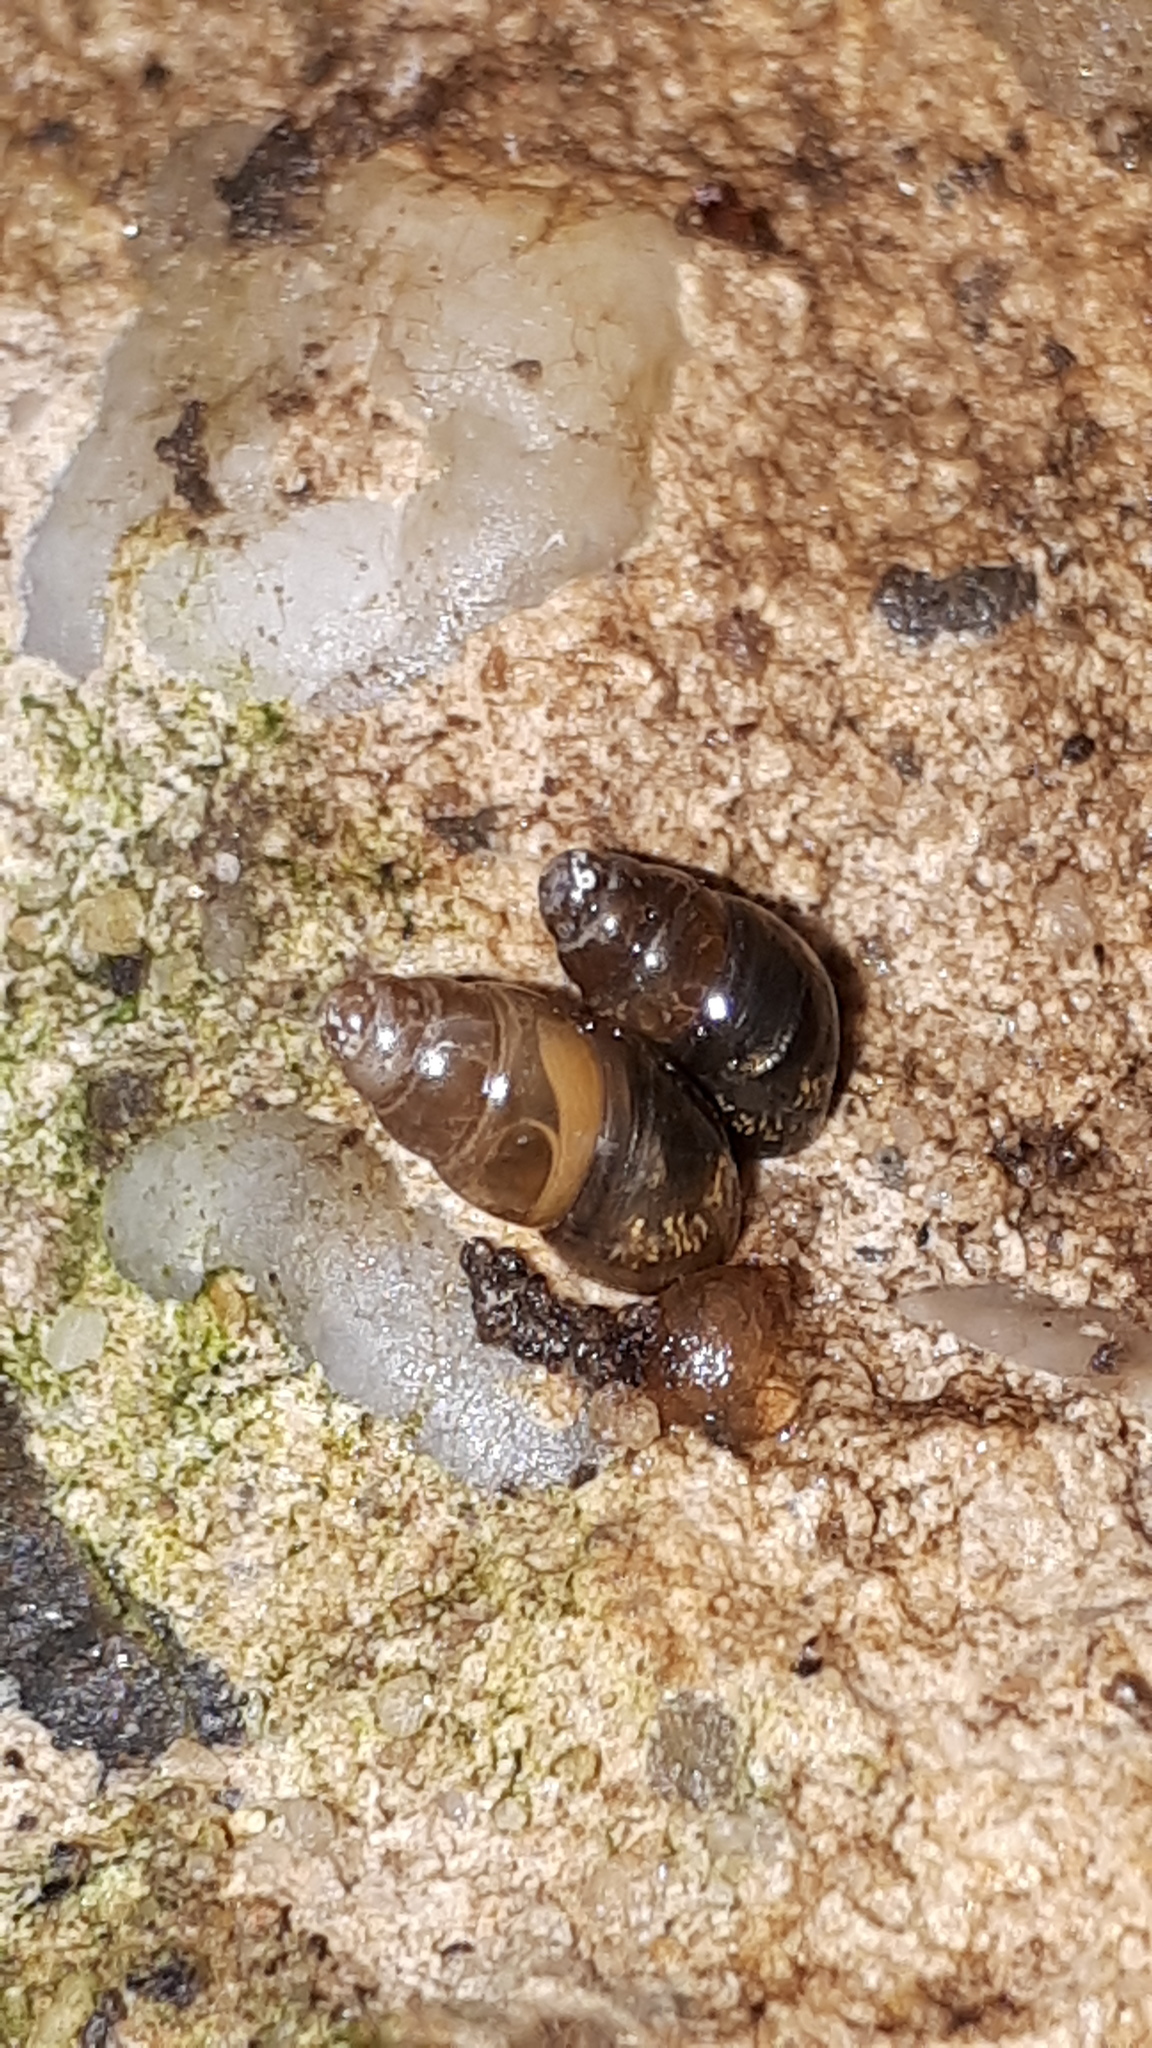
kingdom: Animalia
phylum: Mollusca
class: Gastropoda
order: Stylommatophora
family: Cochlicopidae
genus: Cochlicopa
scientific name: Cochlicopa lubrica
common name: Glossy pillar snail
